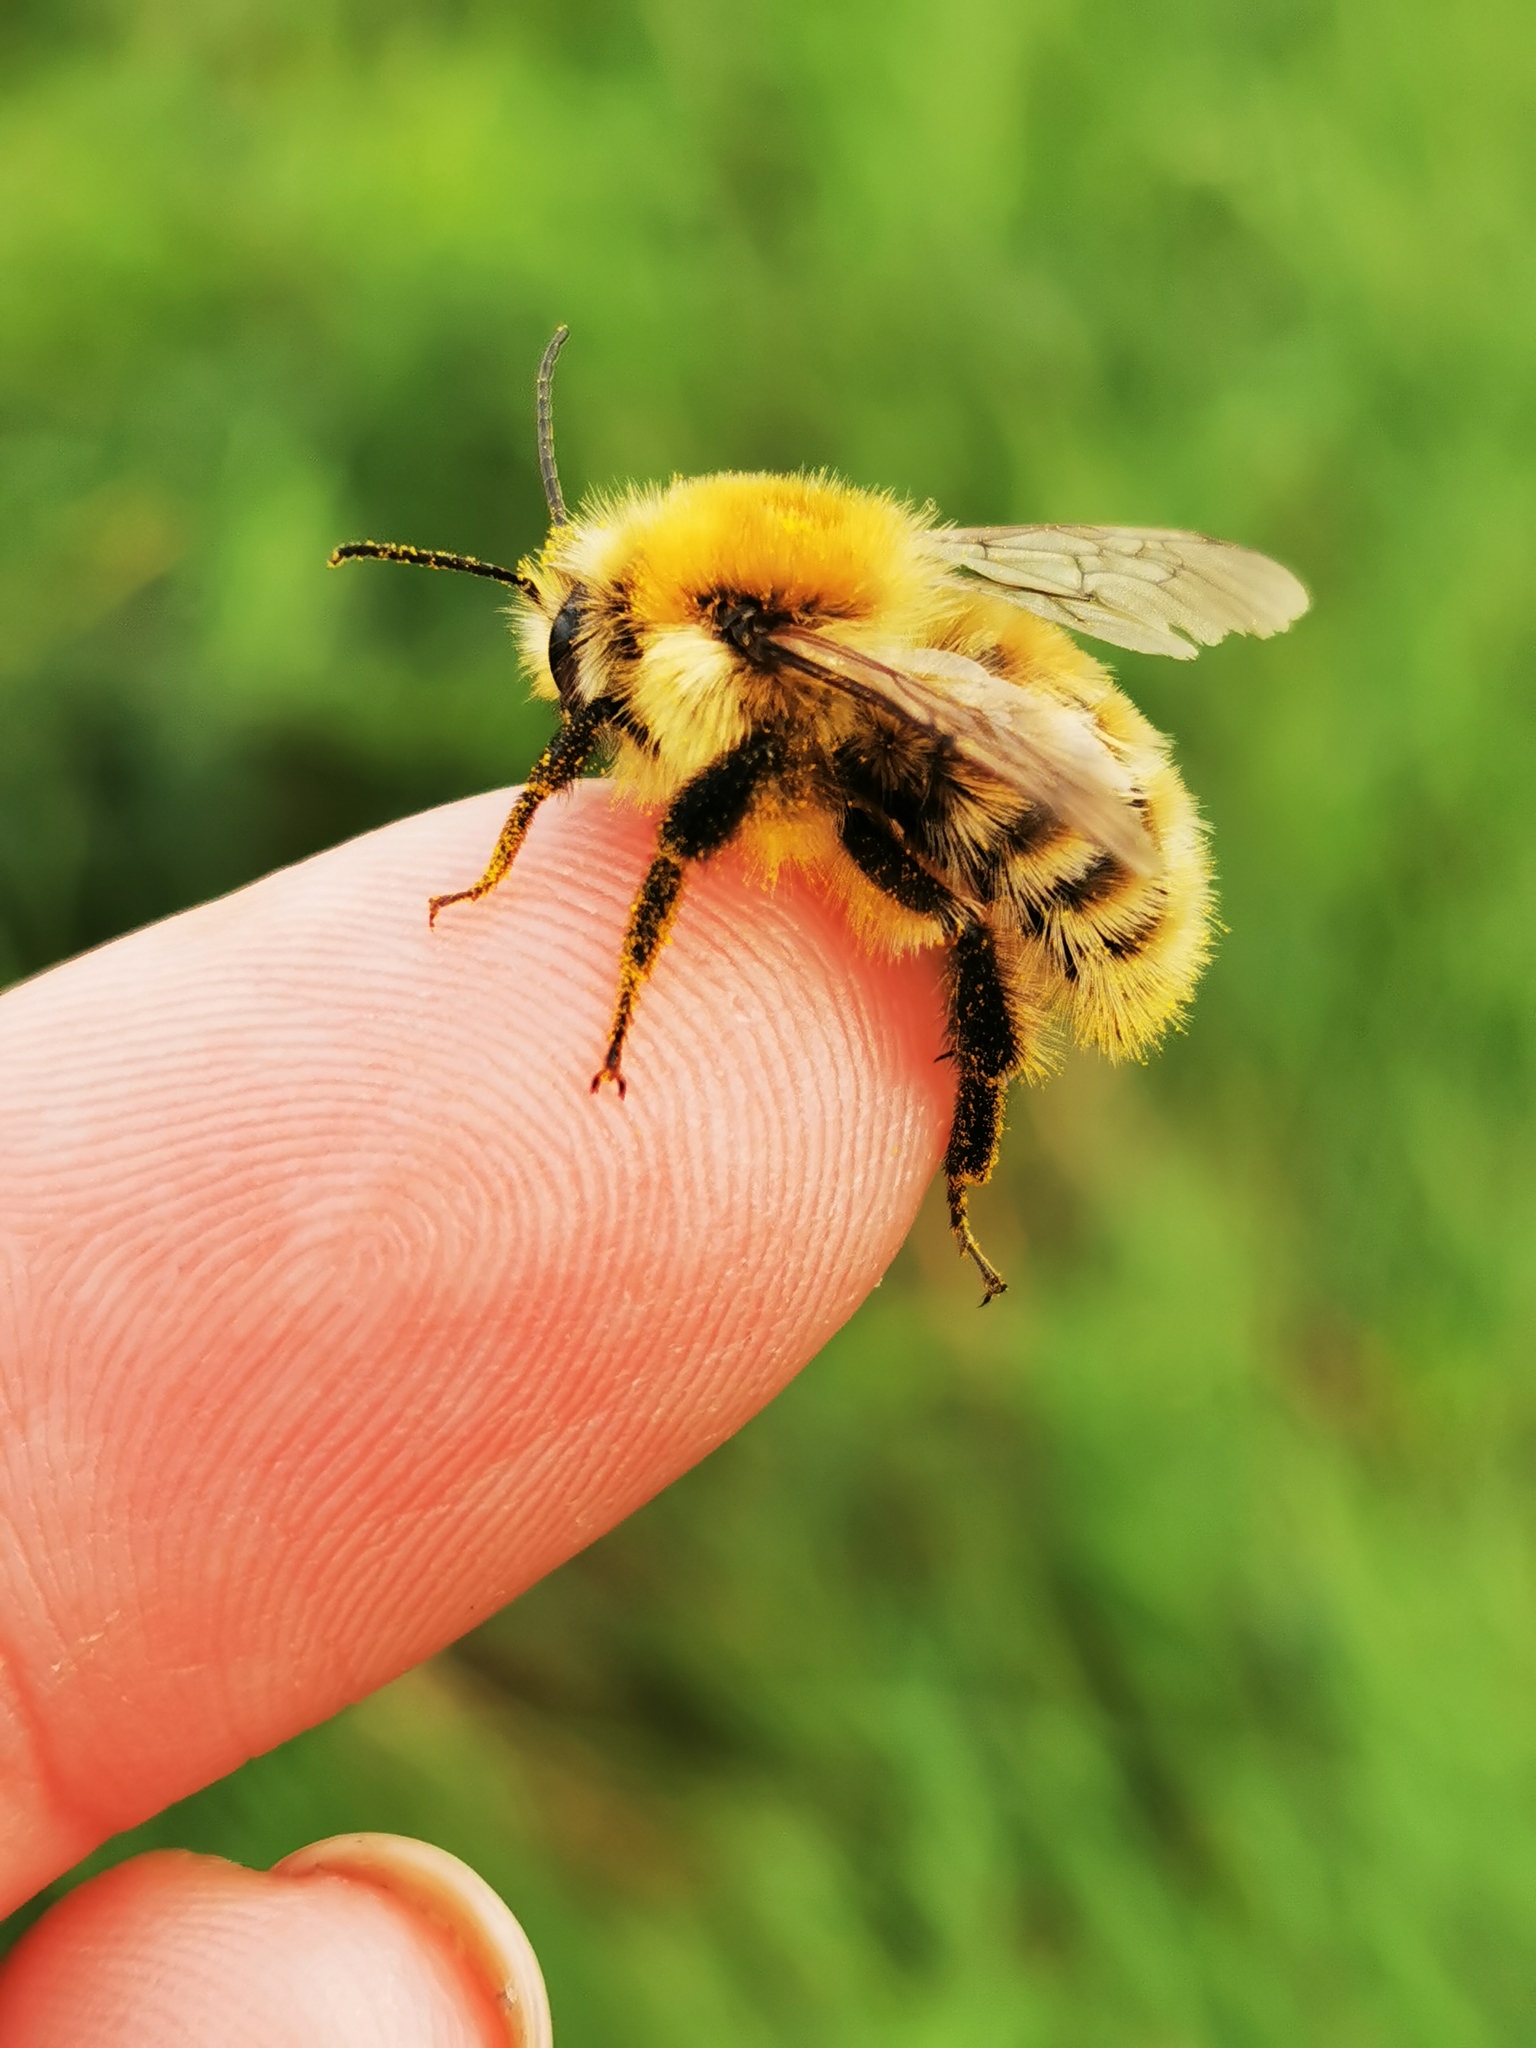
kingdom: Animalia
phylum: Arthropoda
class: Insecta
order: Hymenoptera
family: Apidae
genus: Bombus
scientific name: Bombus muscorum
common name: Moss carder-bee
